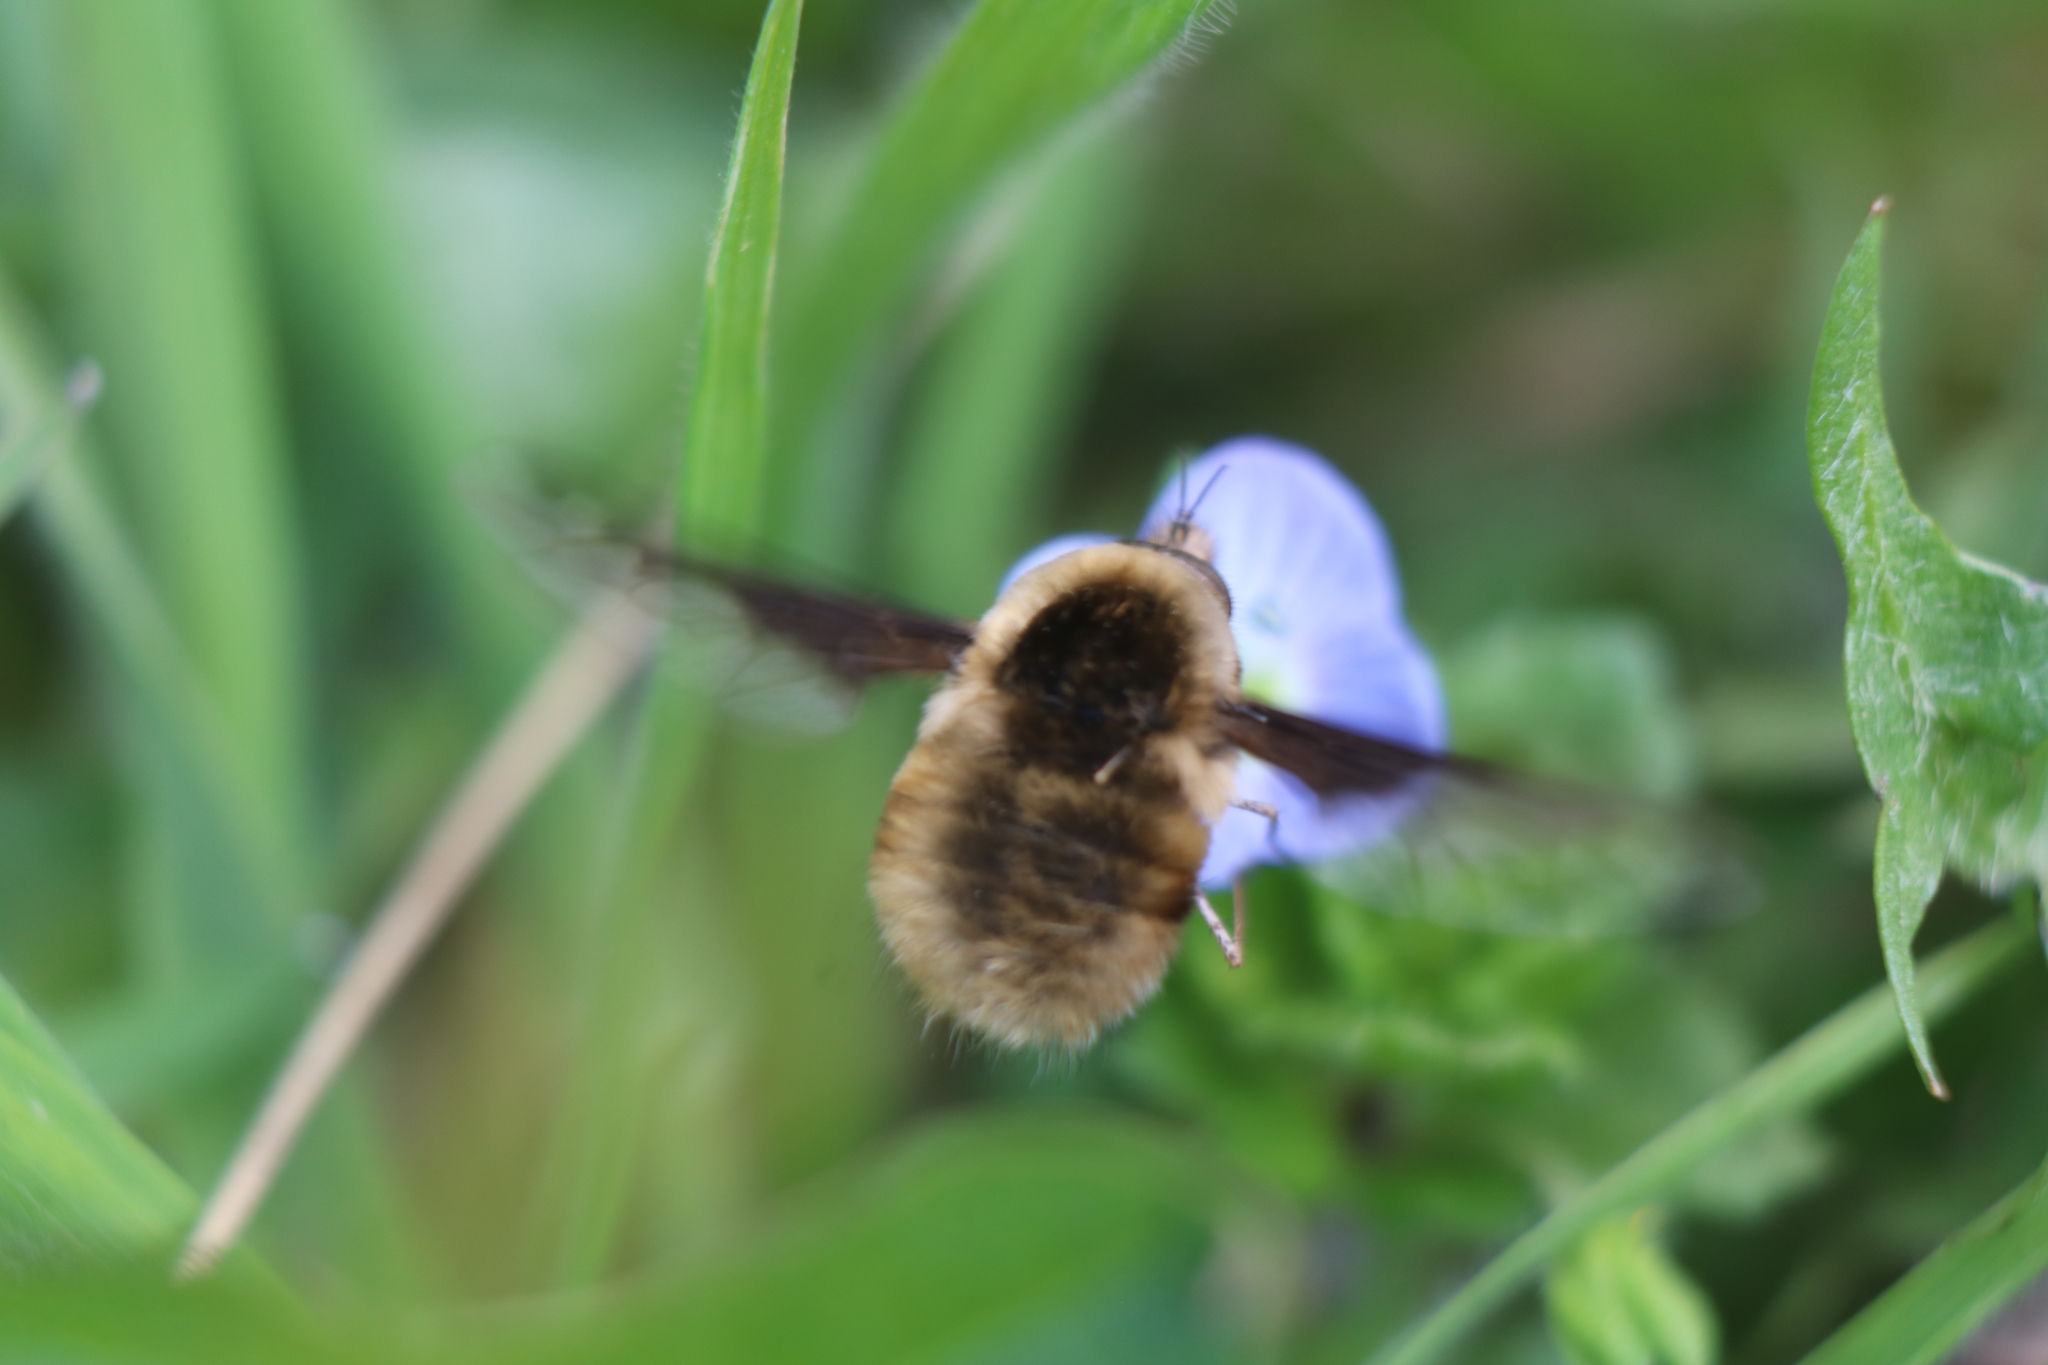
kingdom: Animalia
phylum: Arthropoda
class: Insecta
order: Diptera
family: Bombyliidae
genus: Bombylius
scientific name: Bombylius major
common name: Bee fly
